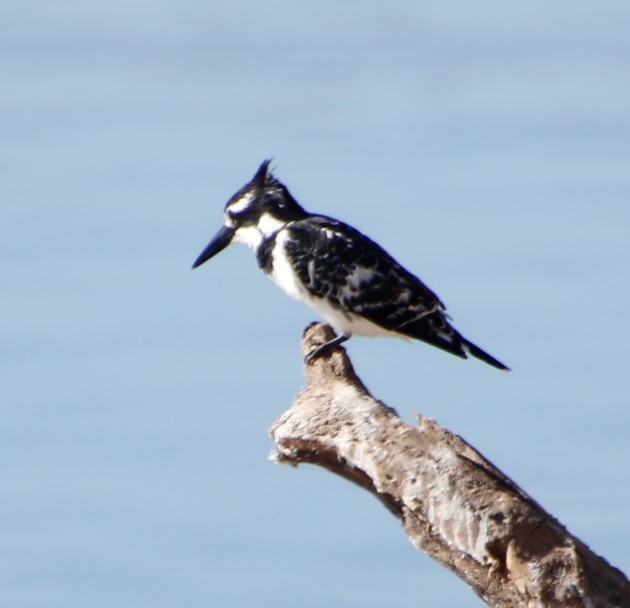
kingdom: Animalia
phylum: Chordata
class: Aves
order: Coraciiformes
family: Alcedinidae
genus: Ceryle
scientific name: Ceryle rudis
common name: Pied kingfisher
